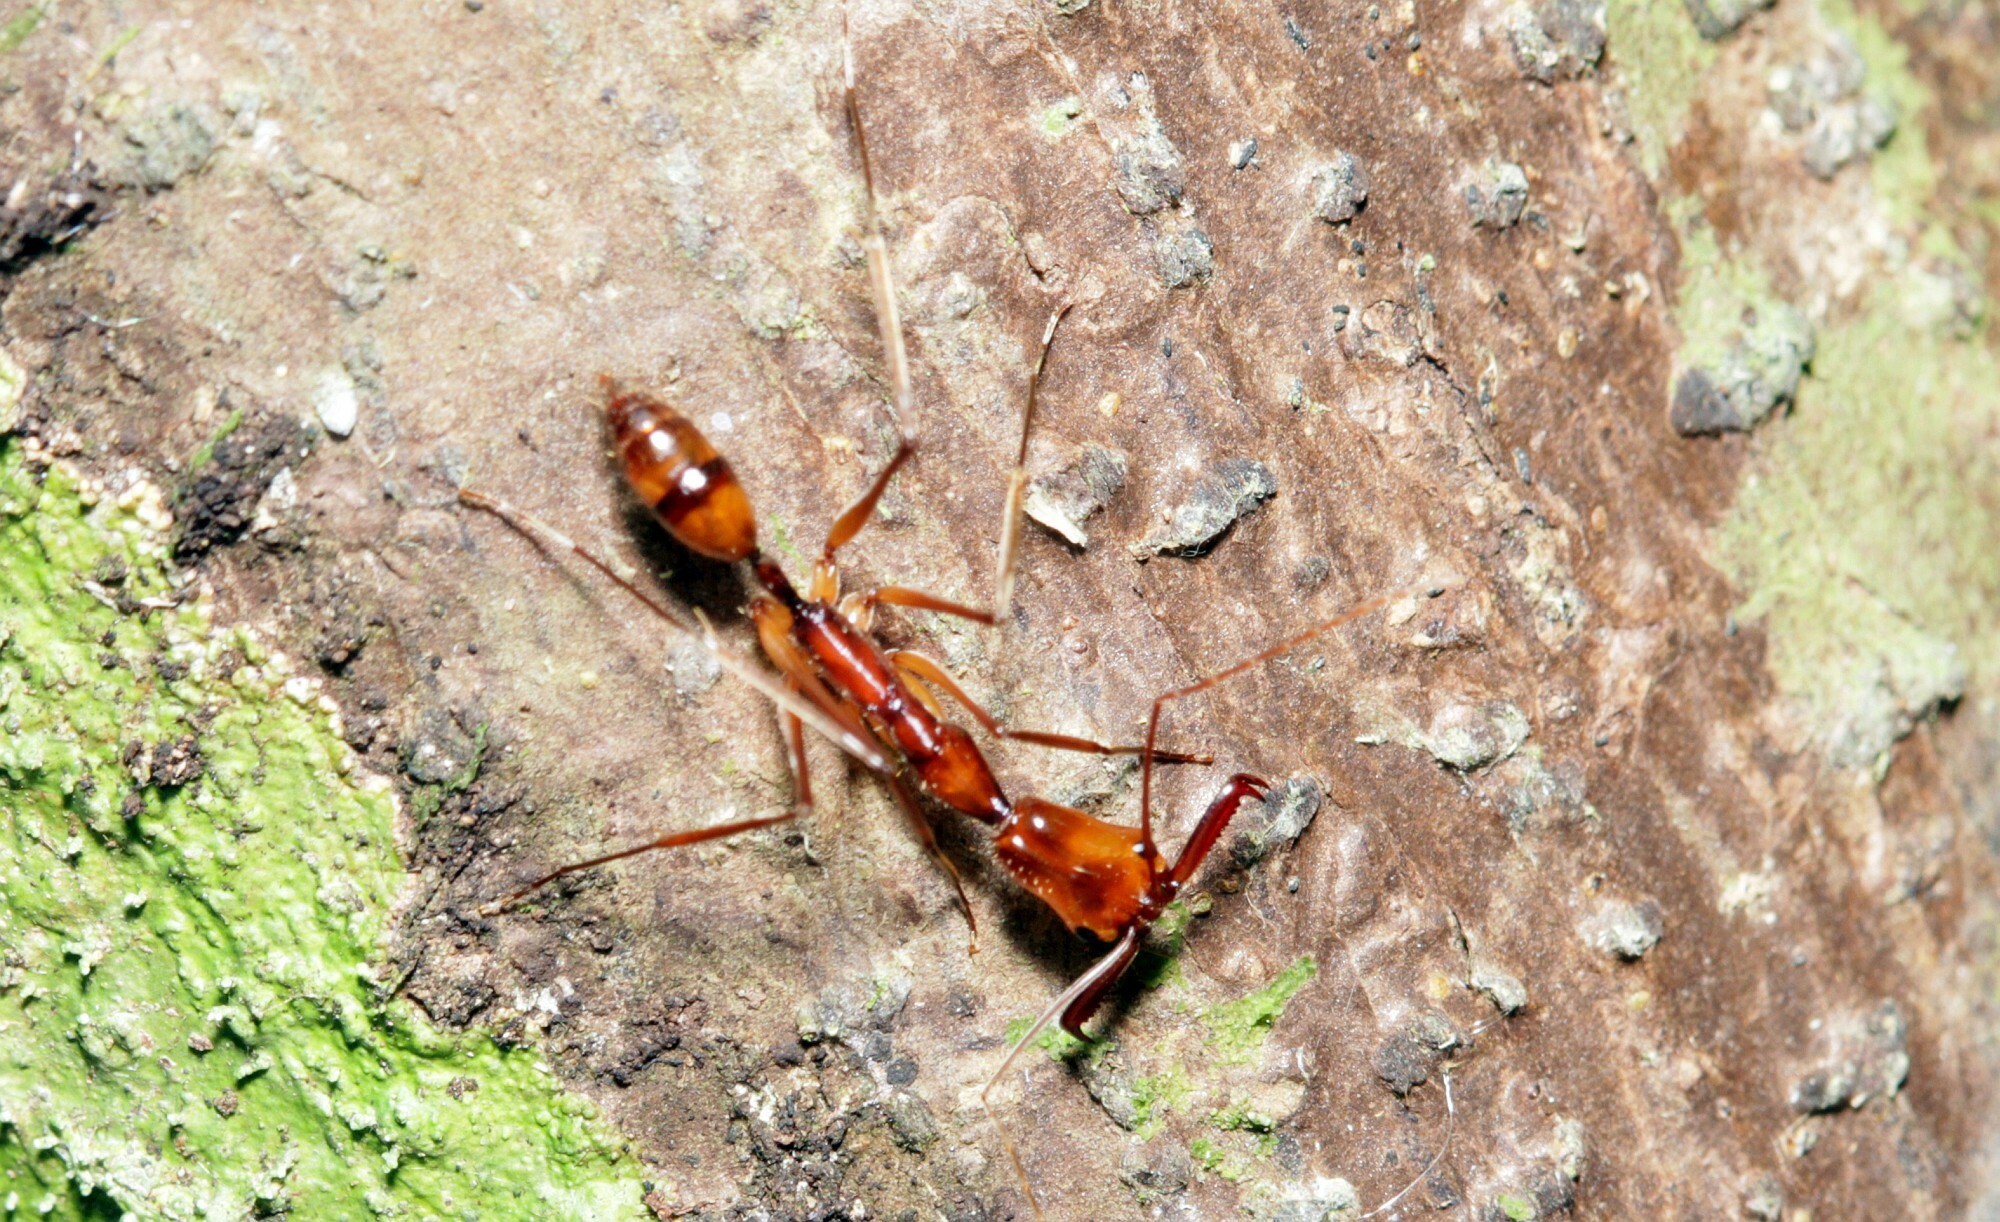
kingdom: Animalia
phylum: Arthropoda
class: Insecta
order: Hymenoptera
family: Formicidae
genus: Odontomachus
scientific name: Odontomachus hastatus
